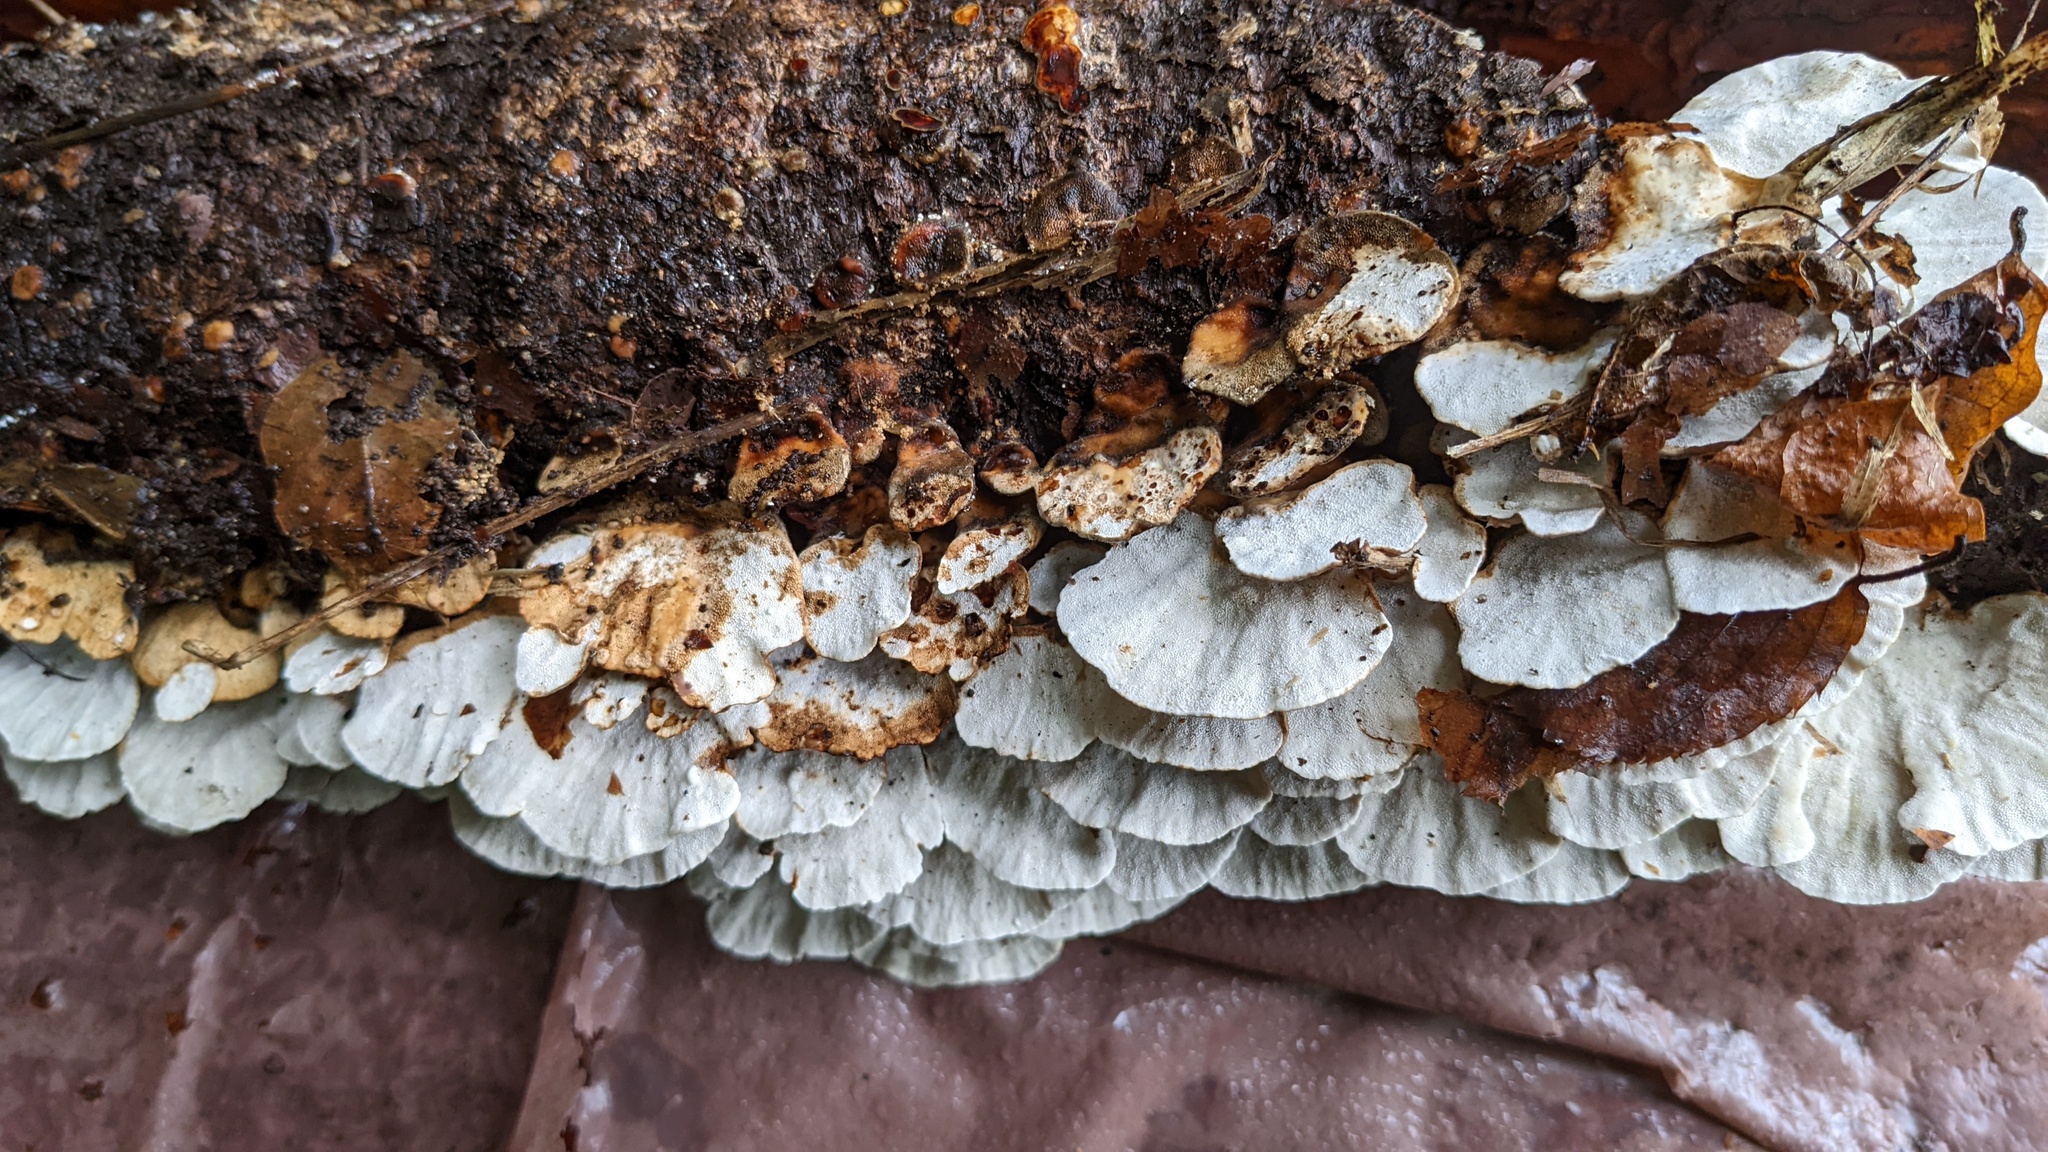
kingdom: Fungi
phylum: Basidiomycota
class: Agaricomycetes
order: Polyporales
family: Polyporaceae
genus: Trametes
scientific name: Trametes versicolor
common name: Turkeytail
